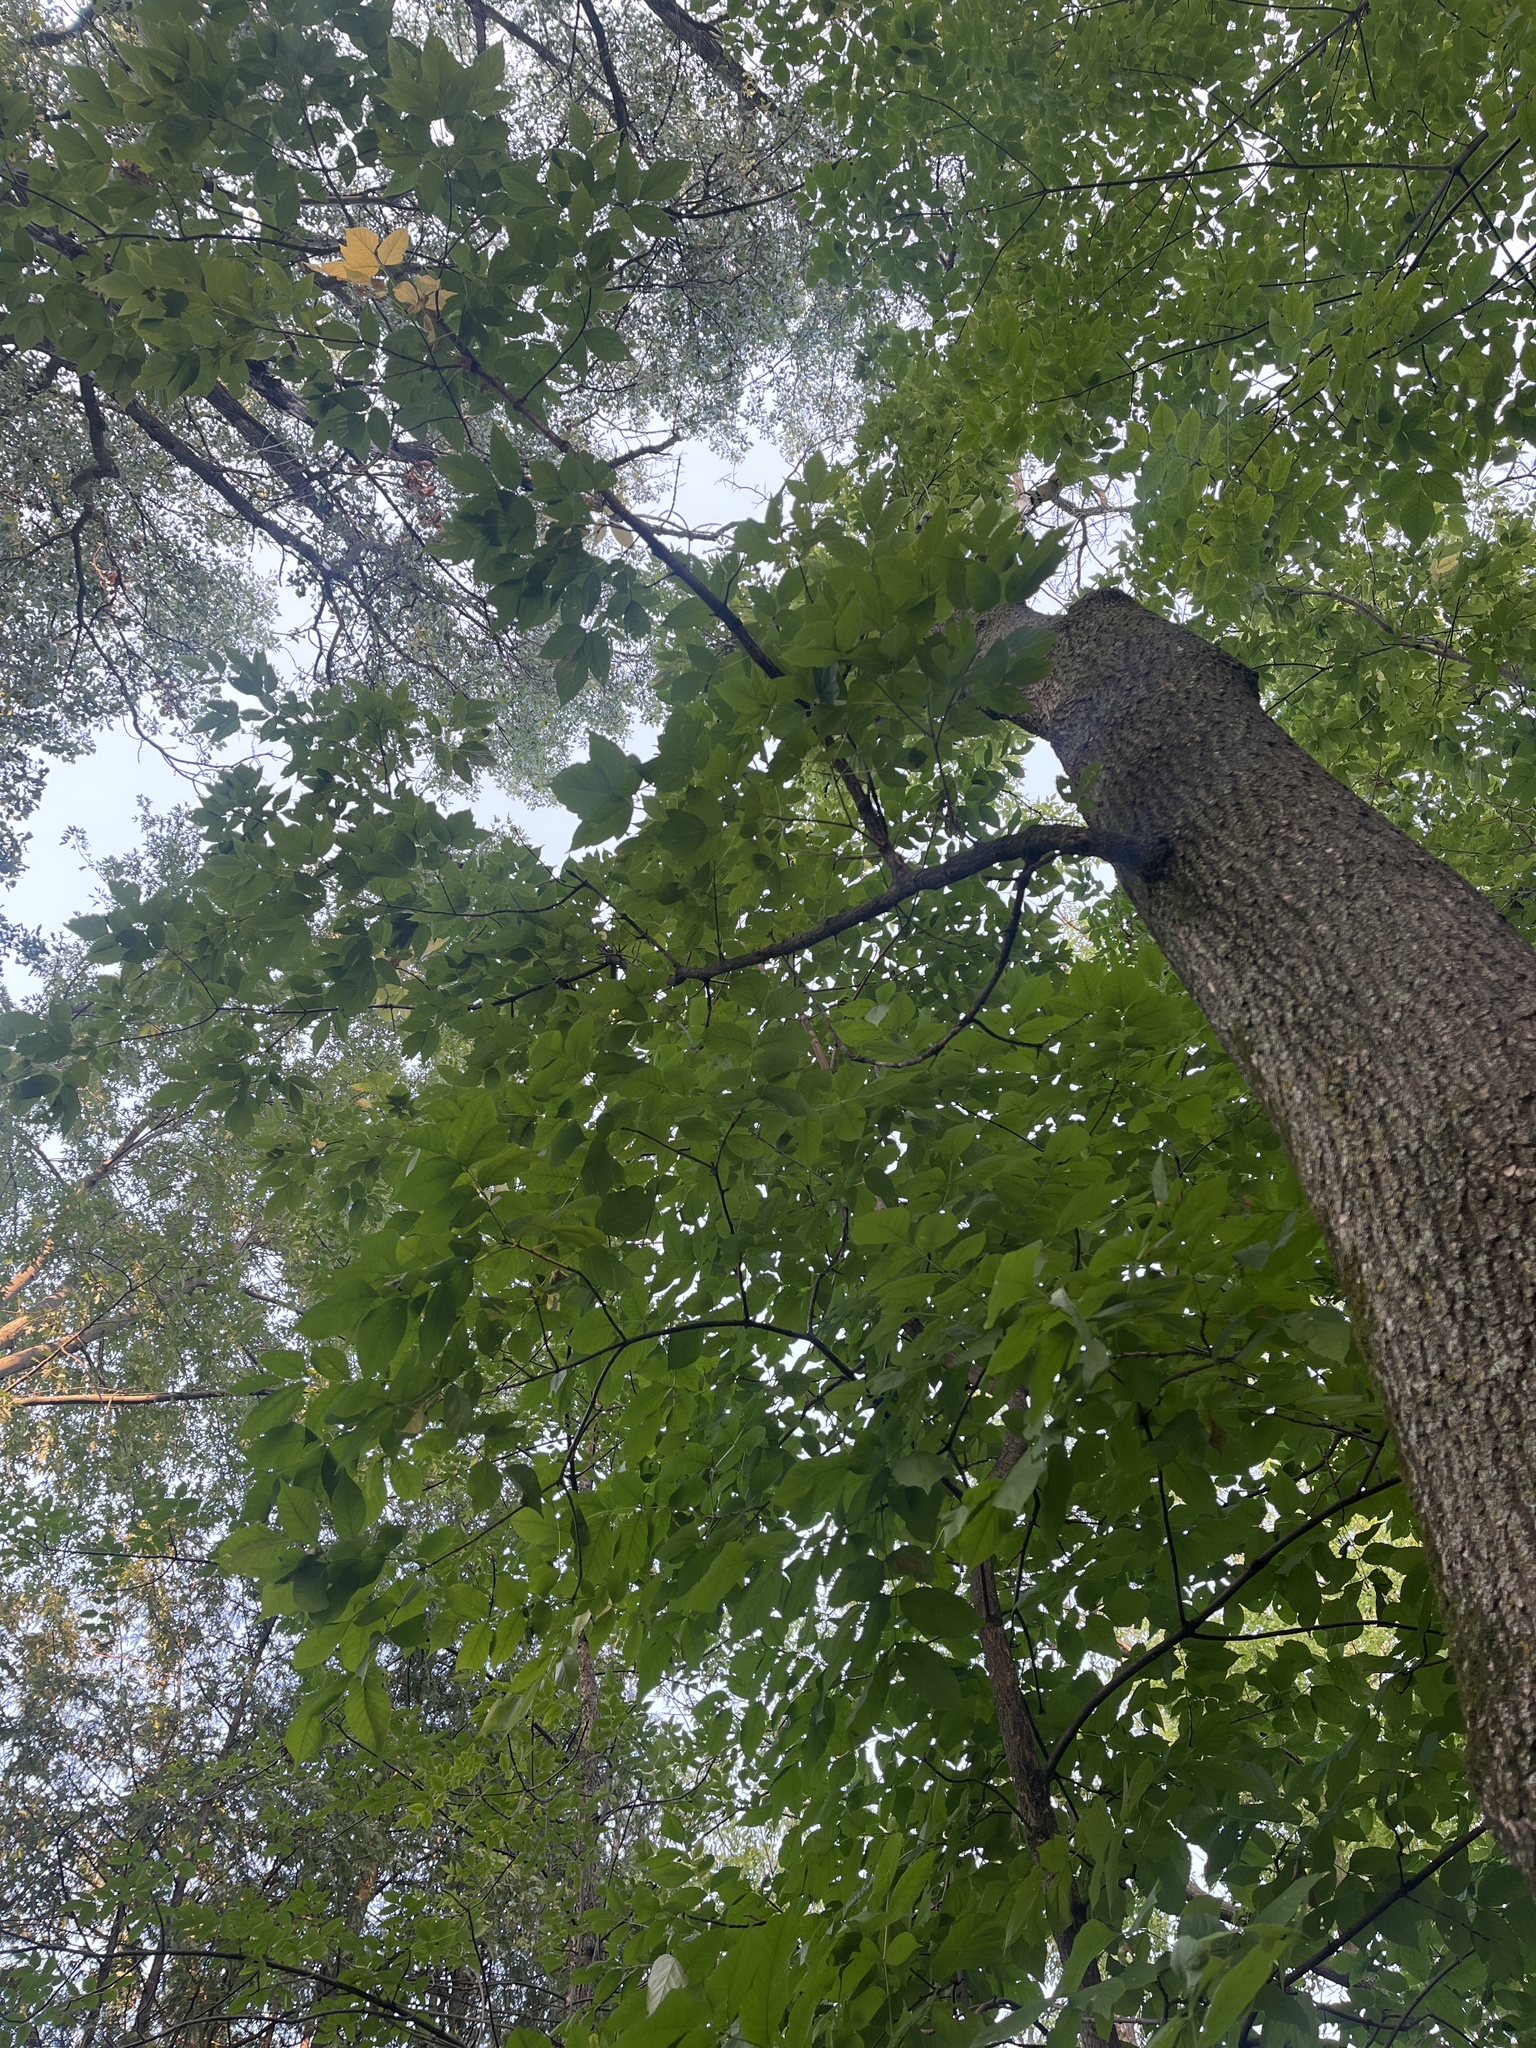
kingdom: Plantae
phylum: Tracheophyta
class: Magnoliopsida
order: Sapindales
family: Sapindaceae
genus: Acer
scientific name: Acer negundo
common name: Ashleaf maple
